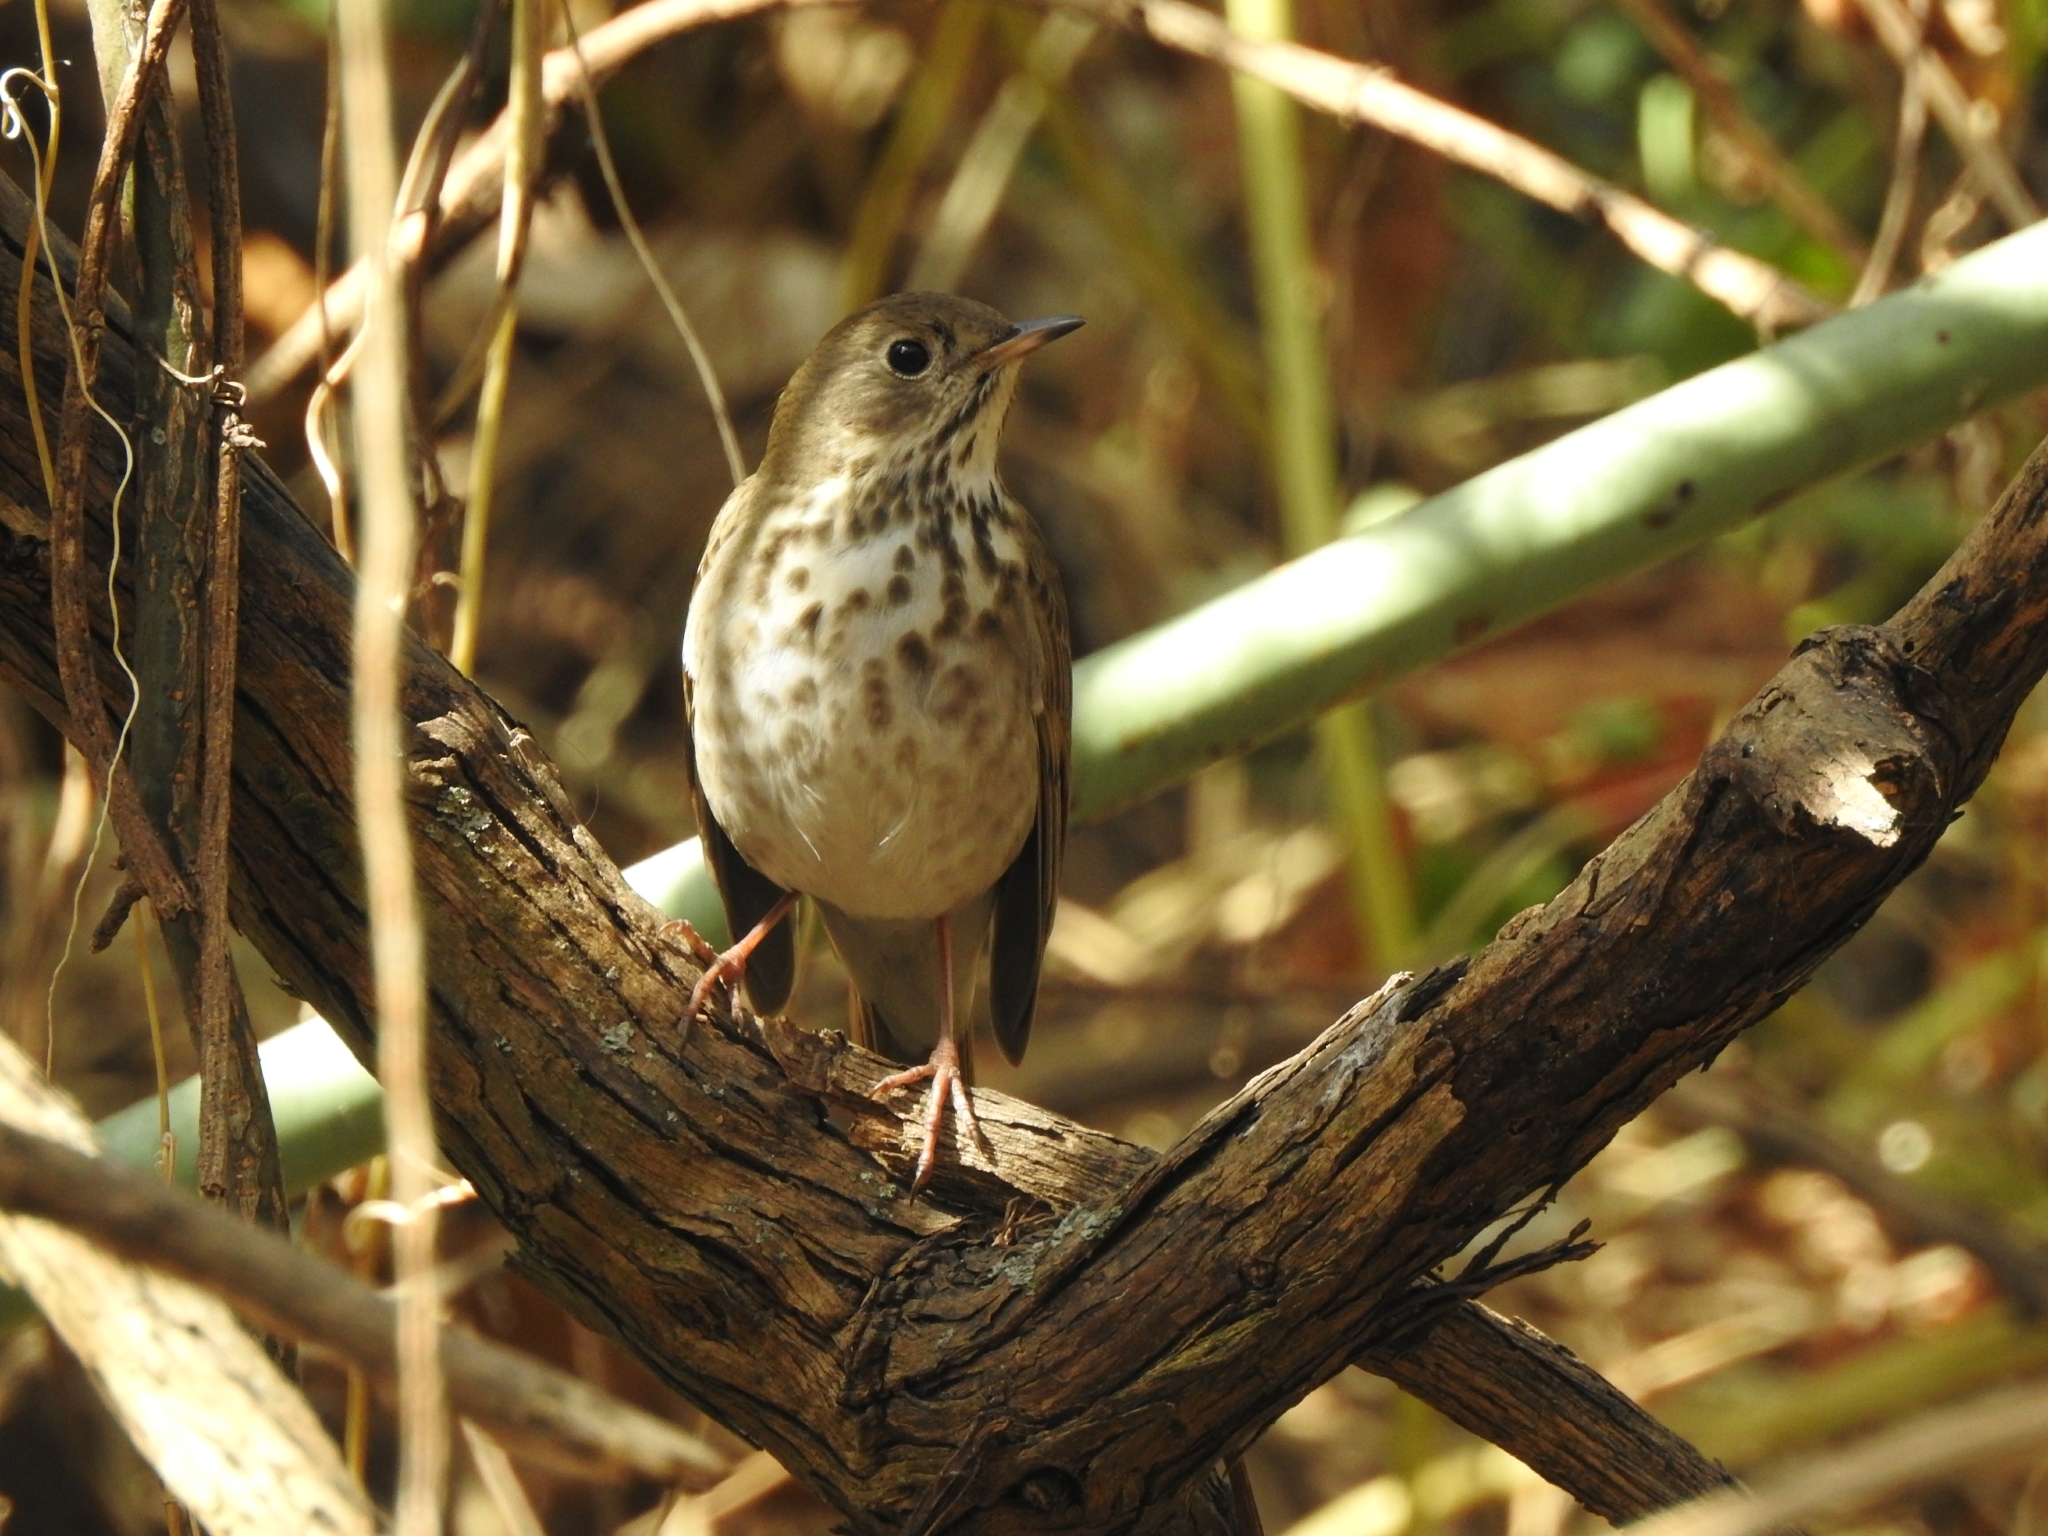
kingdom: Animalia
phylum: Chordata
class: Aves
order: Passeriformes
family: Turdidae
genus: Catharus
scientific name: Catharus guttatus
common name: Hermit thrush
